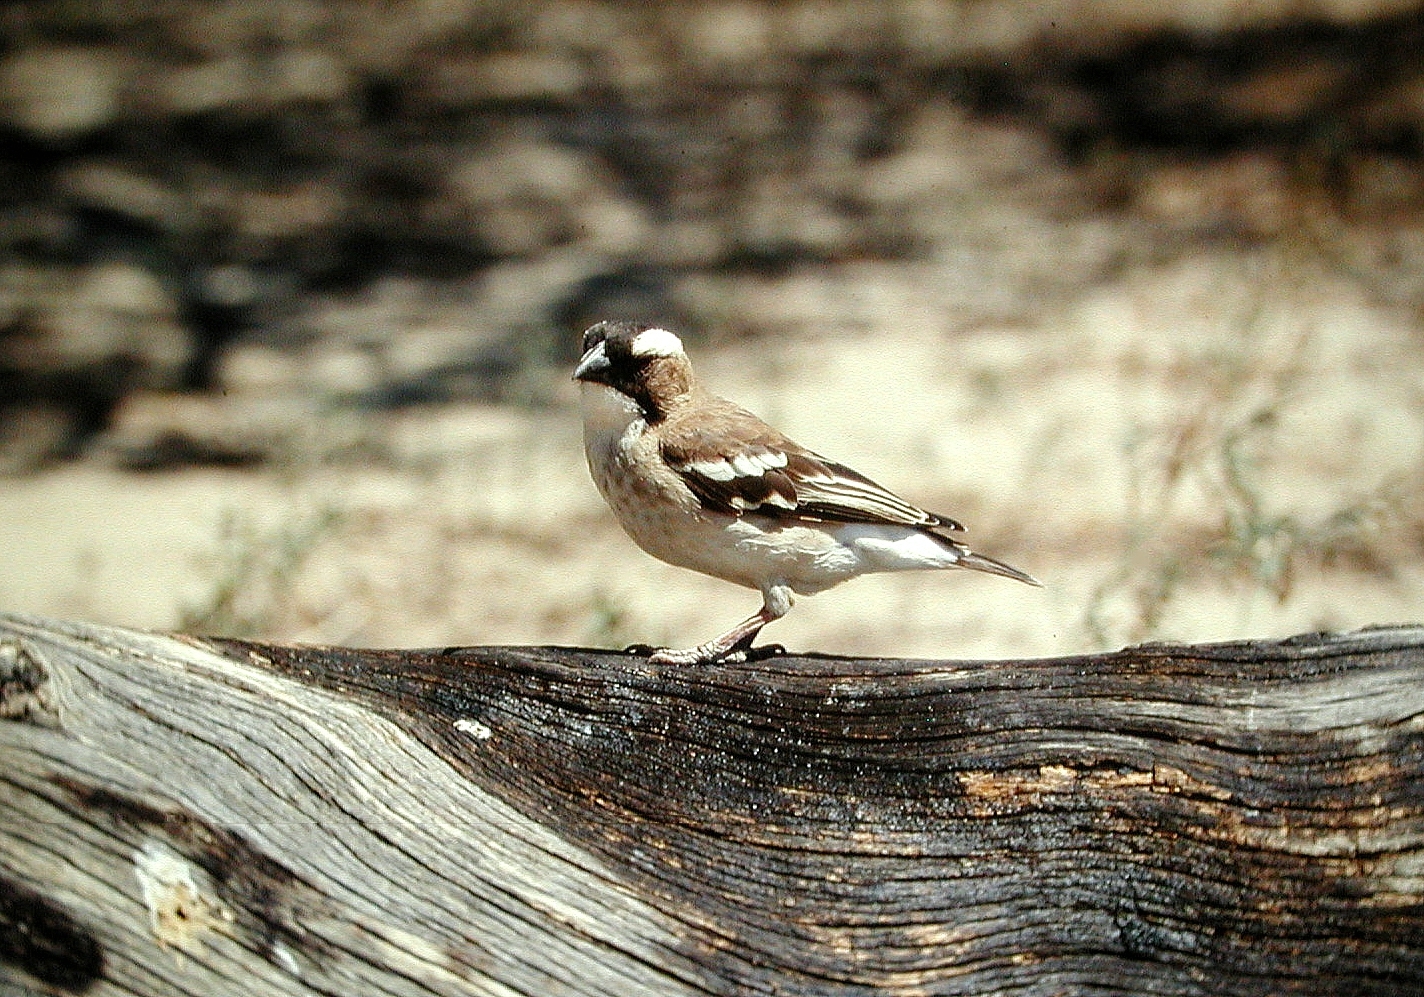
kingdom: Animalia
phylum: Chordata
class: Aves
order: Passeriformes
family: Passeridae
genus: Plocepasser
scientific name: Plocepasser mahali
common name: White-browed sparrow-weaver
